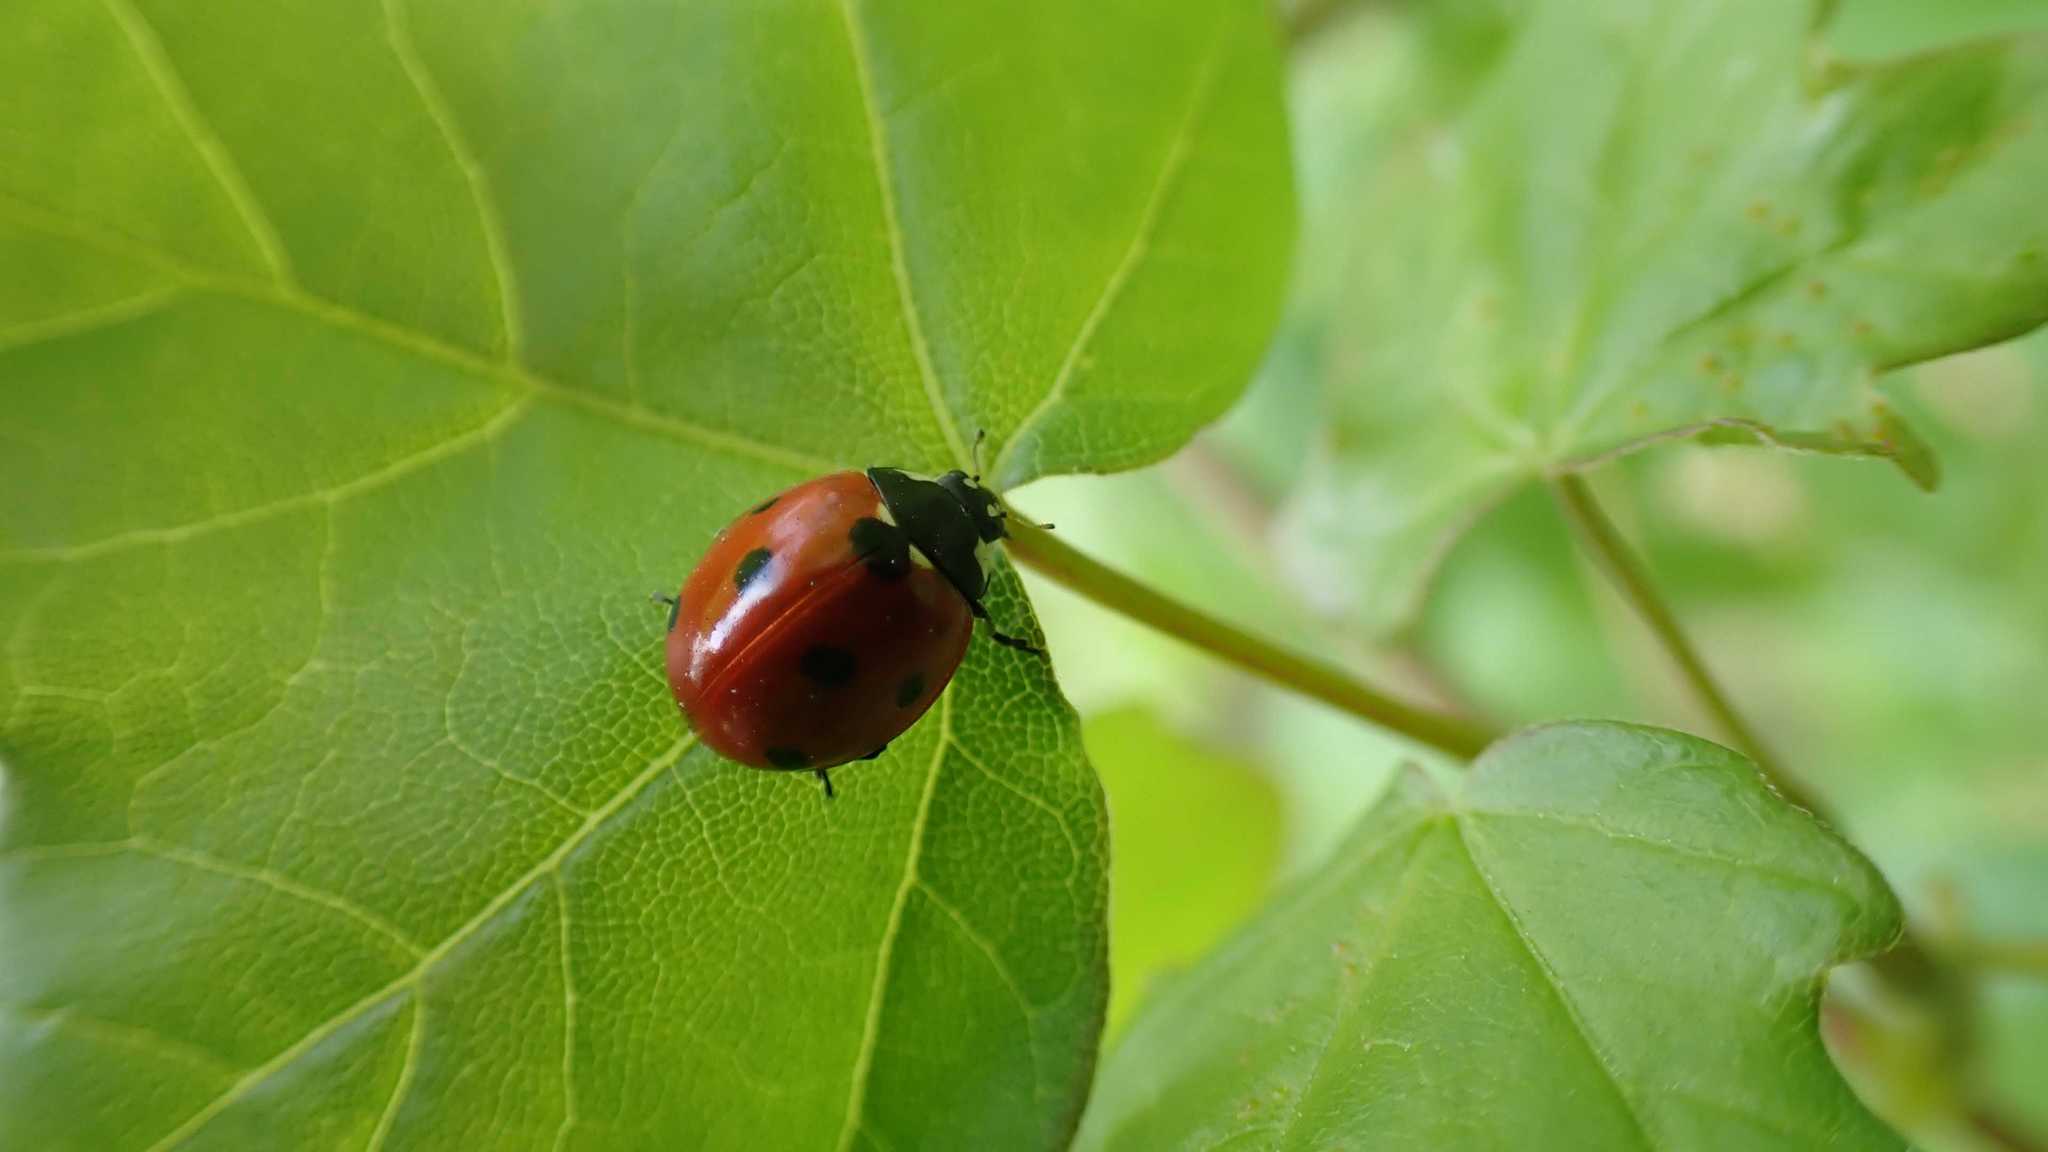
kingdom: Animalia
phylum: Arthropoda
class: Insecta
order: Coleoptera
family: Coccinellidae
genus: Coccinella
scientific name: Coccinella septempunctata
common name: Sevenspotted lady beetle
